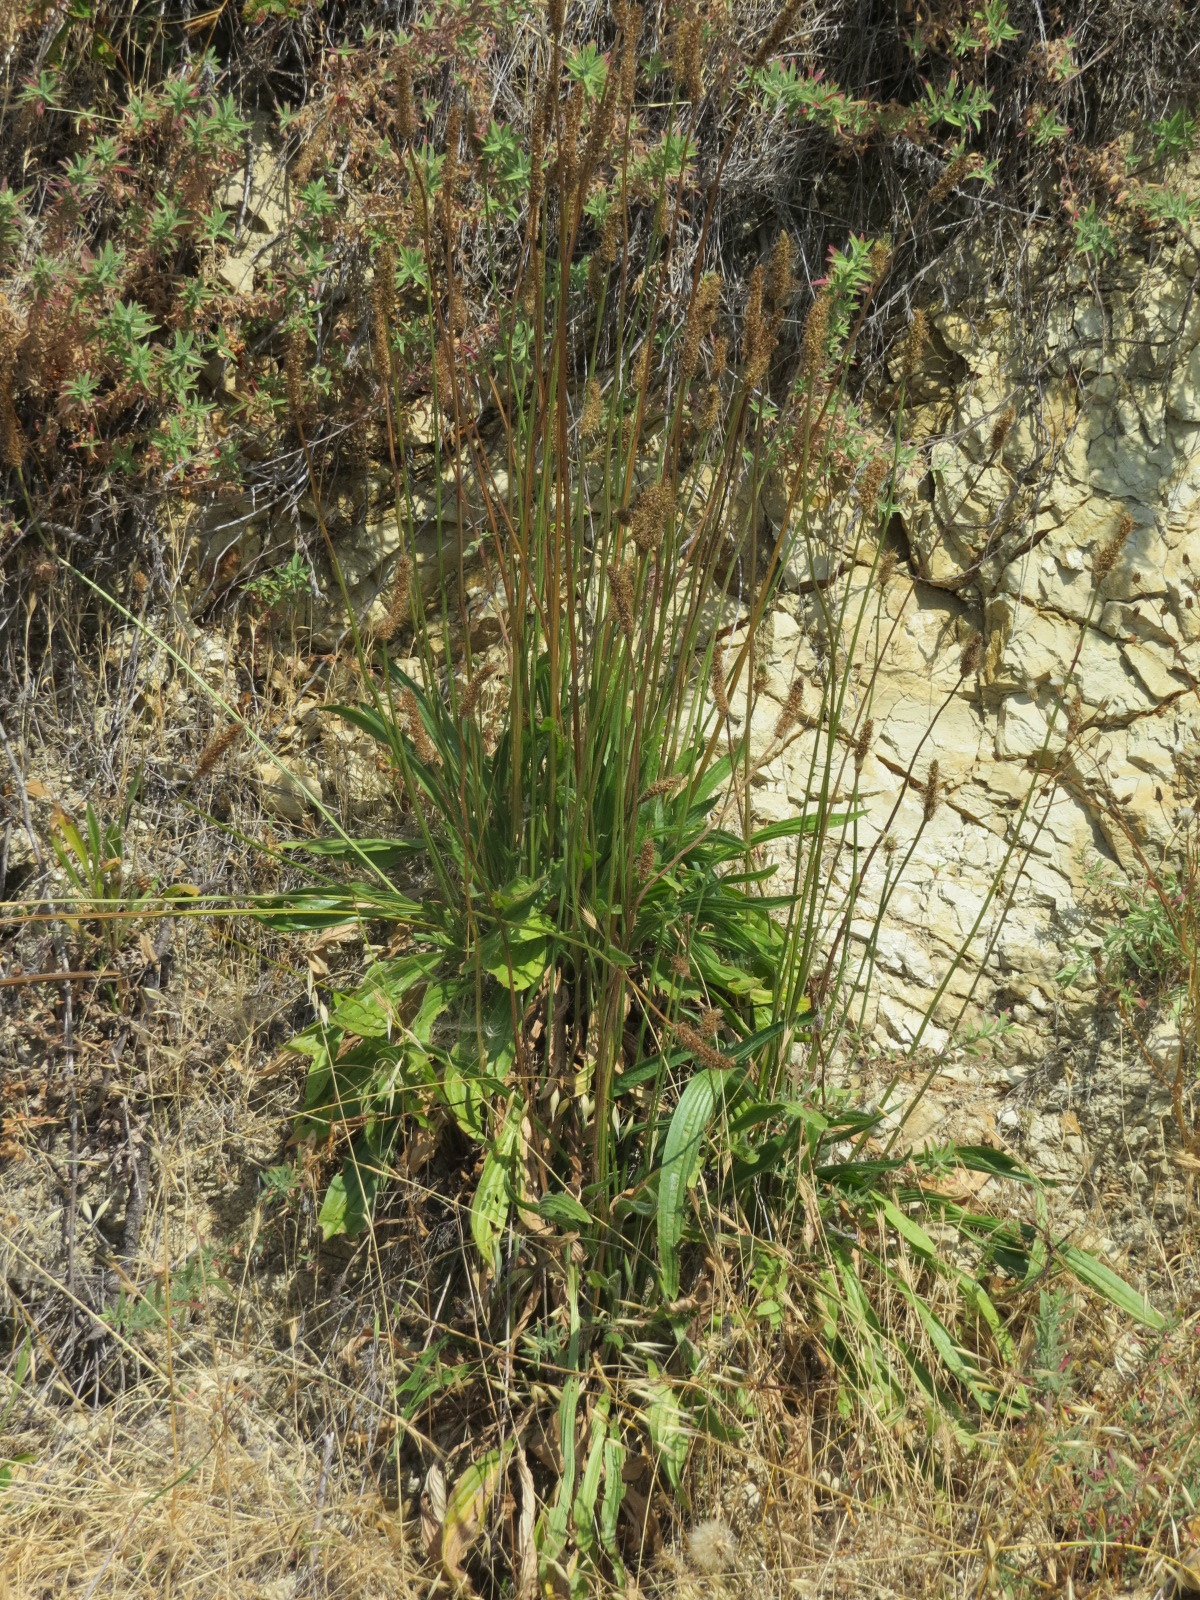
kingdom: Plantae
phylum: Tracheophyta
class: Magnoliopsida
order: Lamiales
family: Plantaginaceae
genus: Plantago
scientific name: Plantago lanceolata
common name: Ribwort plantain
